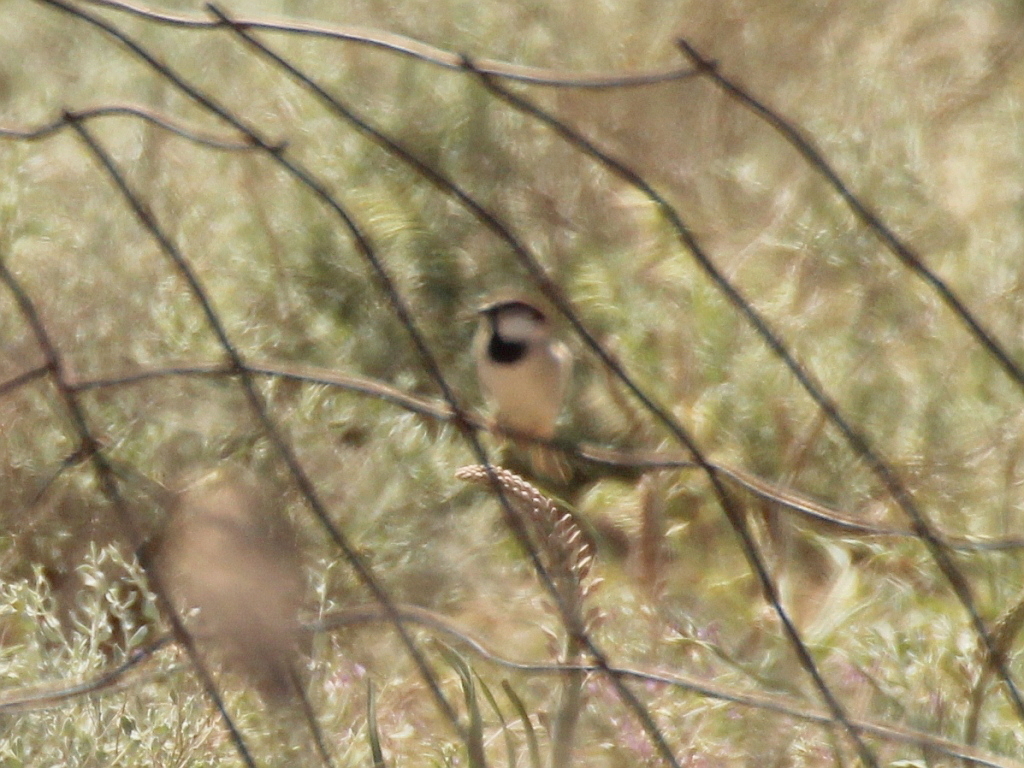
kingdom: Animalia
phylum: Chordata
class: Aves
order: Passeriformes
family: Passeridae
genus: Passer
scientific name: Passer domesticus
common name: House sparrow
